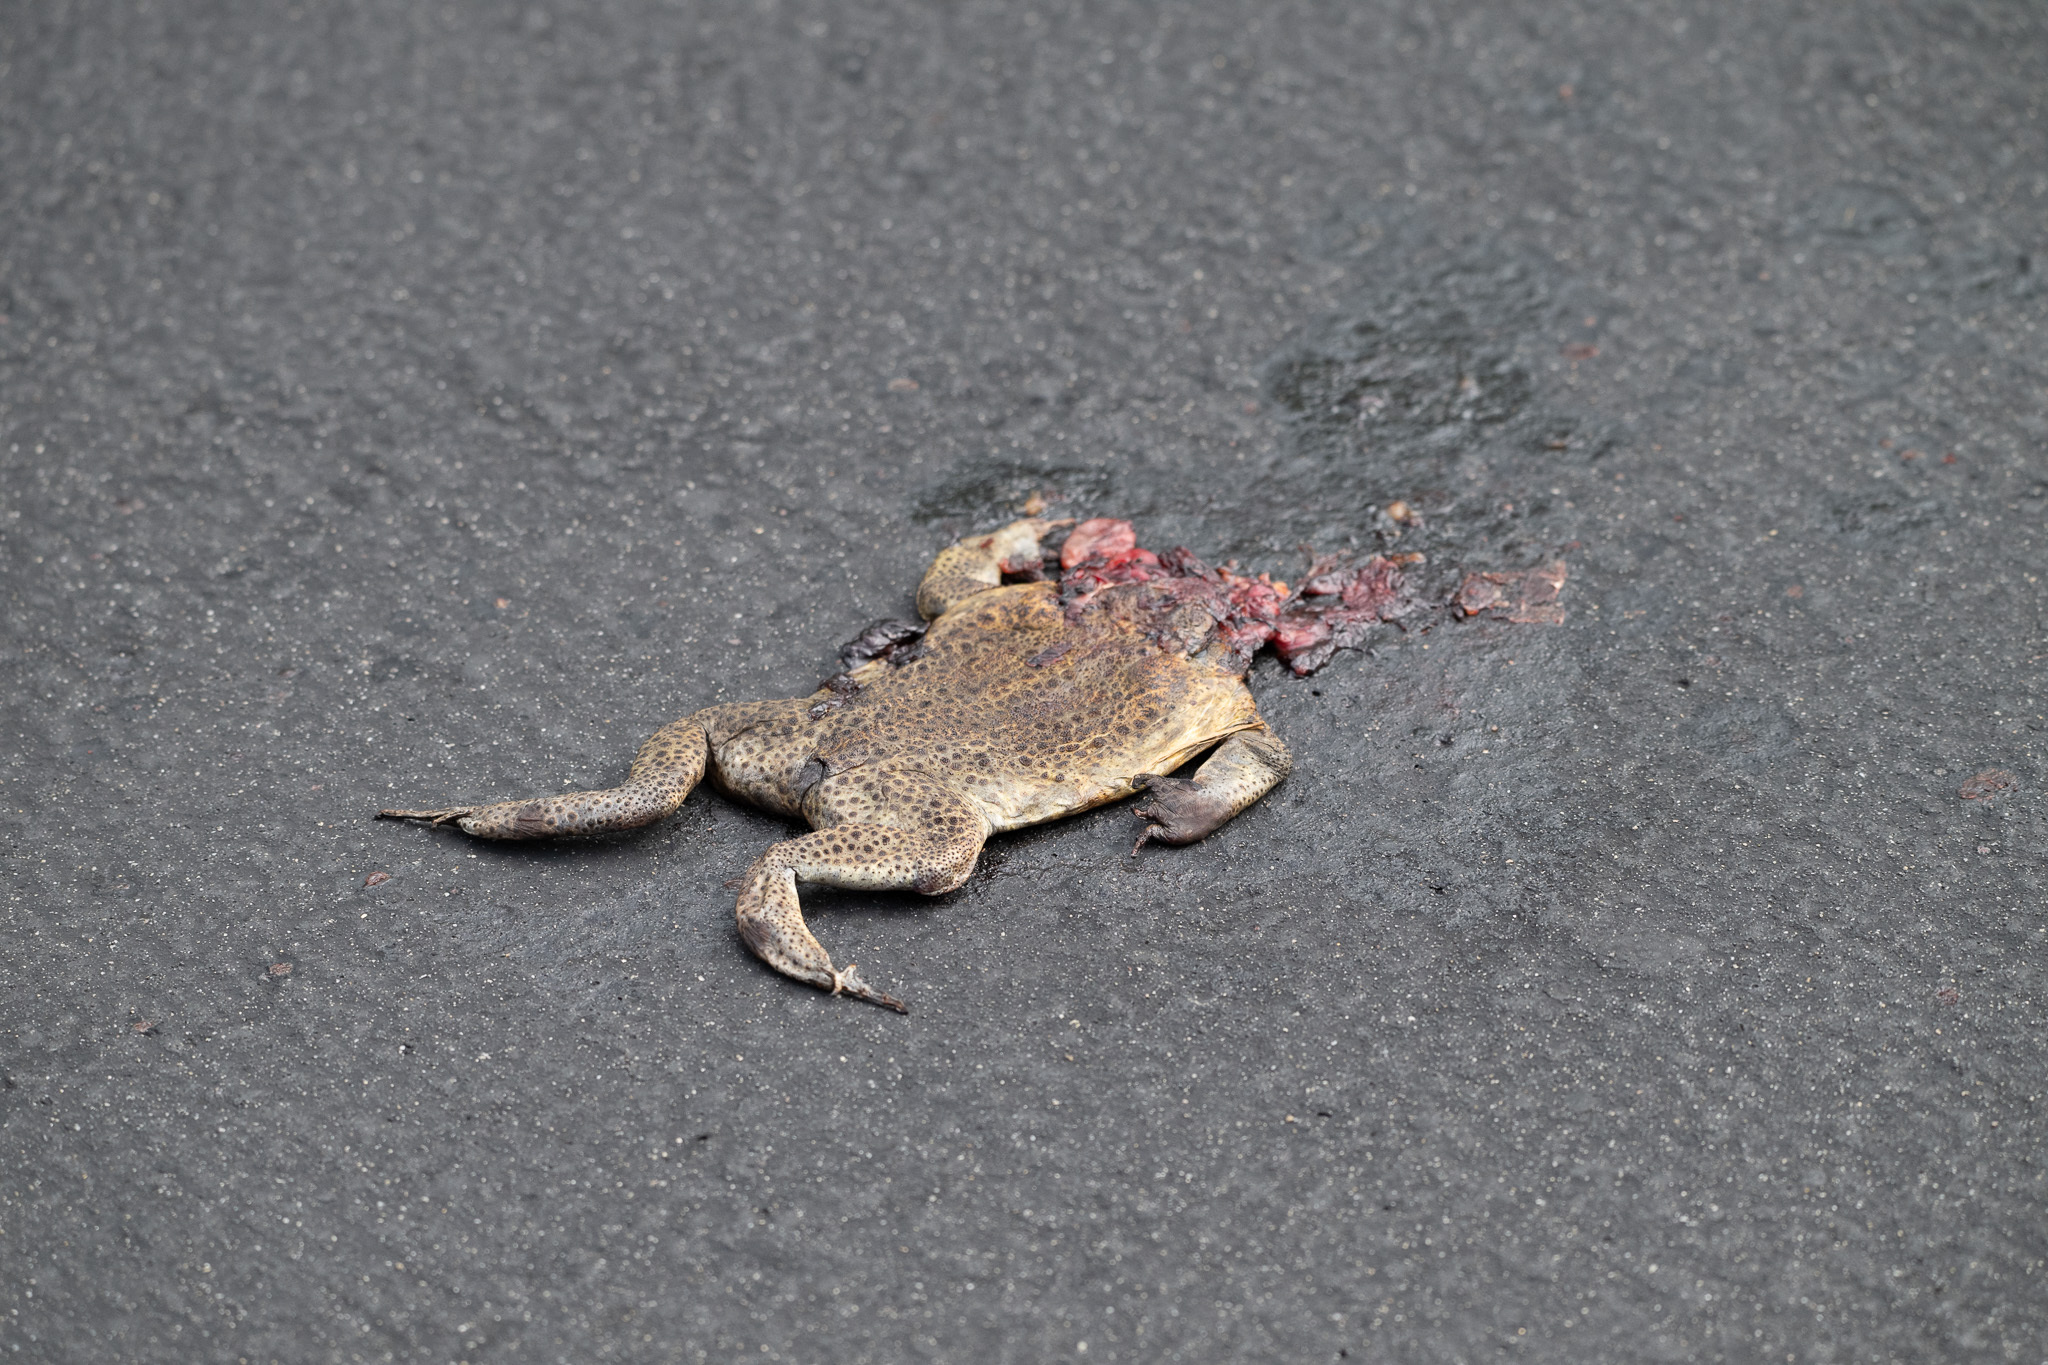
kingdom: Animalia
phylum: Chordata
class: Amphibia
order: Anura
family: Bufonidae
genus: Rhinella
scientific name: Rhinella marina
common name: Cane toad
